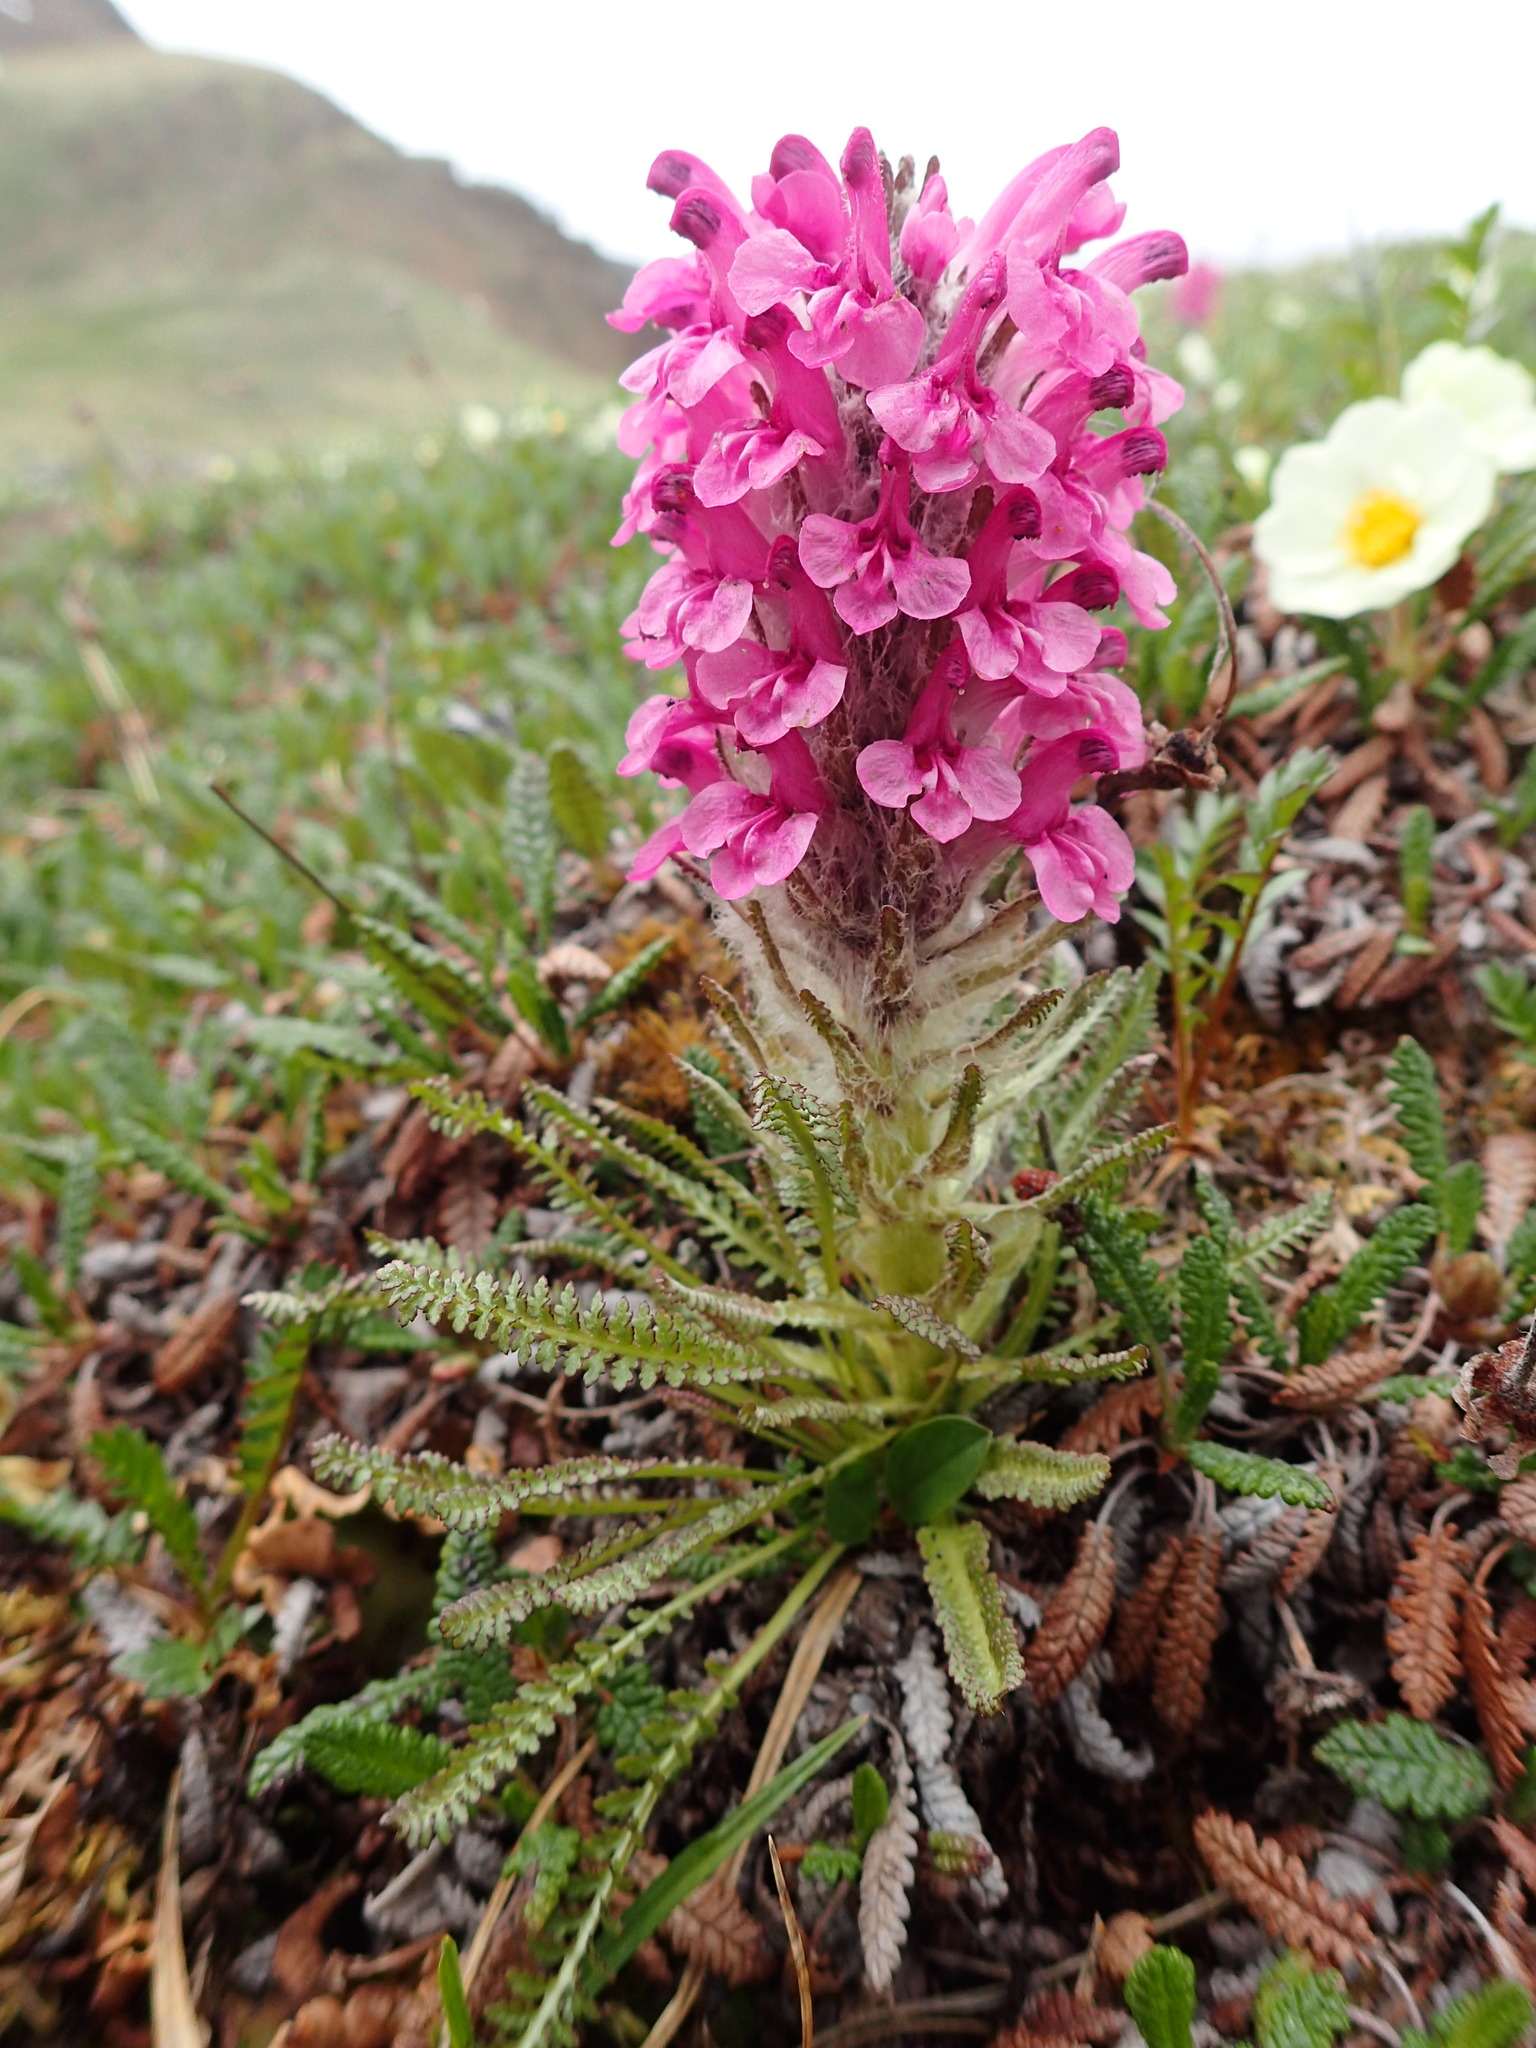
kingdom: Plantae
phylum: Tracheophyta
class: Magnoliopsida
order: Lamiales
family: Orobanchaceae
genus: Pedicularis
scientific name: Pedicularis lanata
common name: Woolly lousewort
